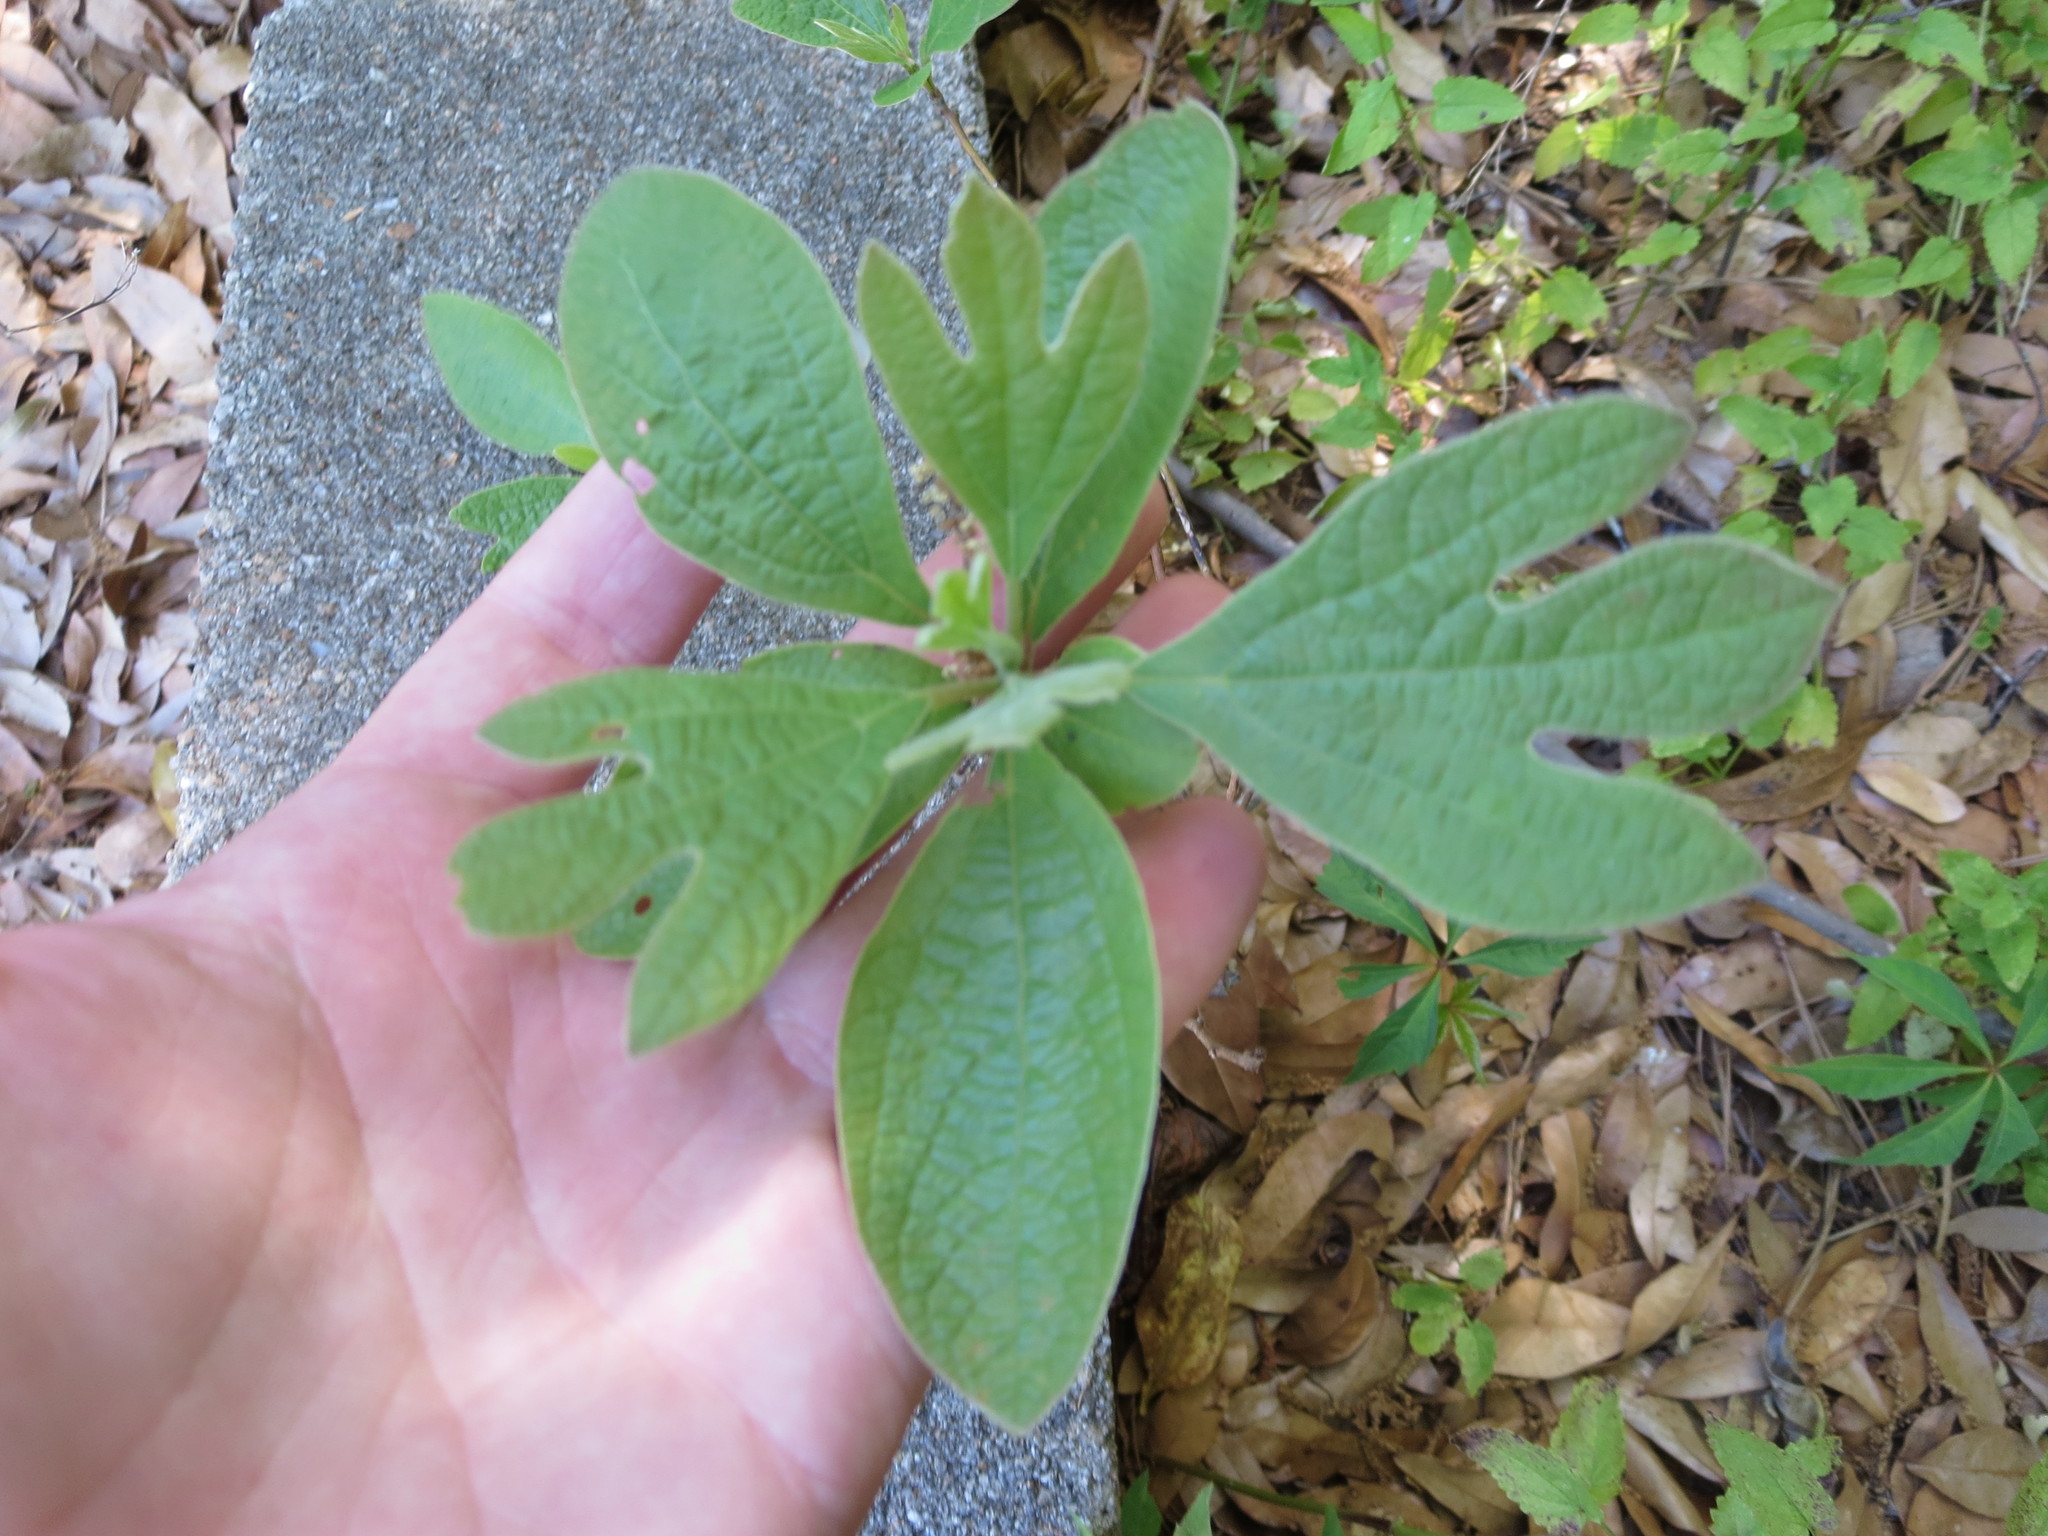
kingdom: Plantae
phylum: Tracheophyta
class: Magnoliopsida
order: Laurales
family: Lauraceae
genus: Sassafras
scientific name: Sassafras albidum
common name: Sassafras
